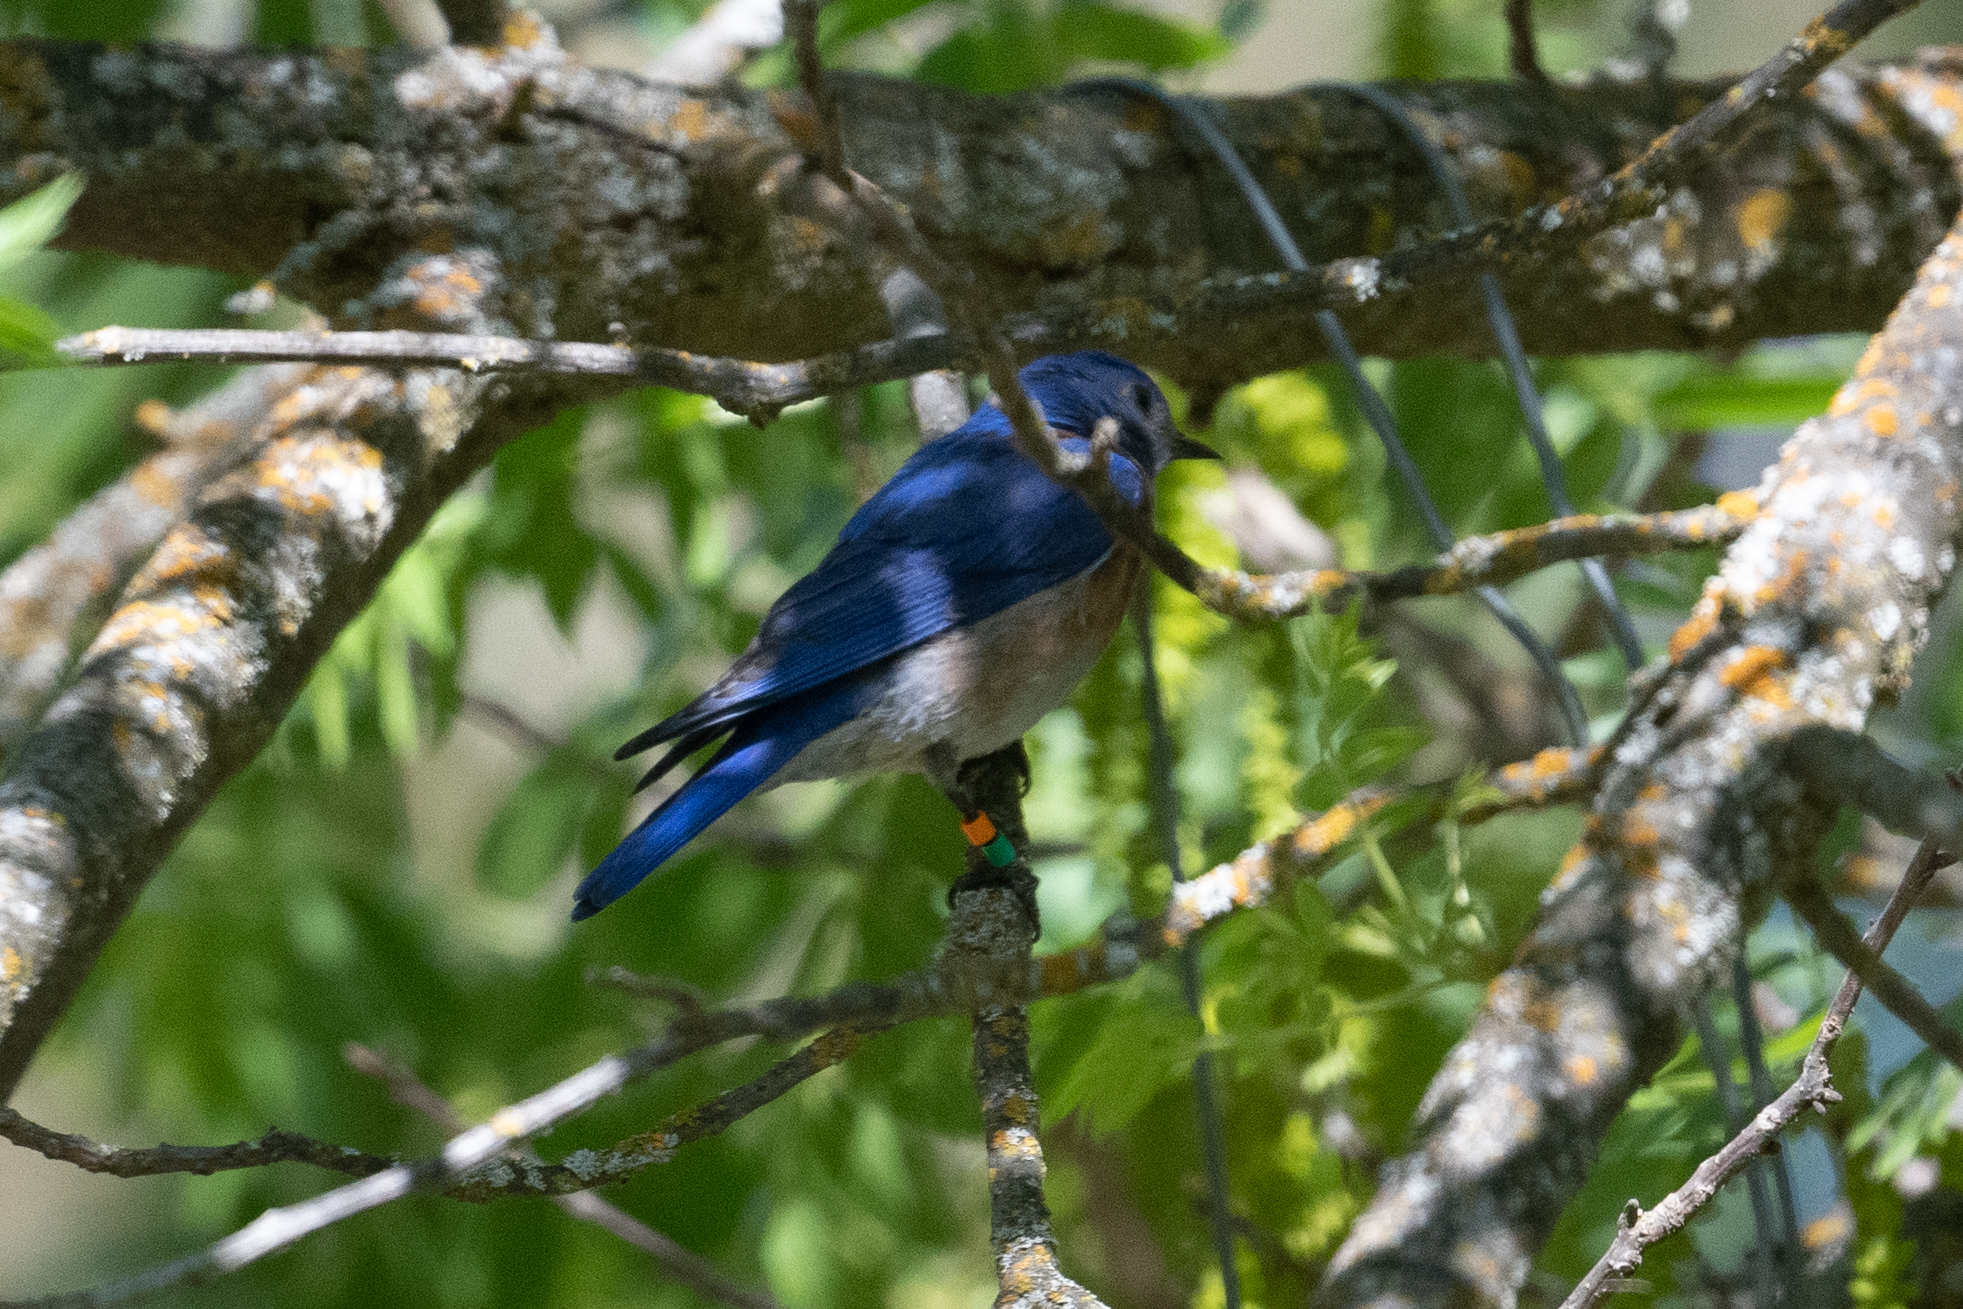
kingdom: Animalia
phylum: Chordata
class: Aves
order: Passeriformes
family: Turdidae
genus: Sialia
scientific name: Sialia mexicana
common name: Western bluebird
